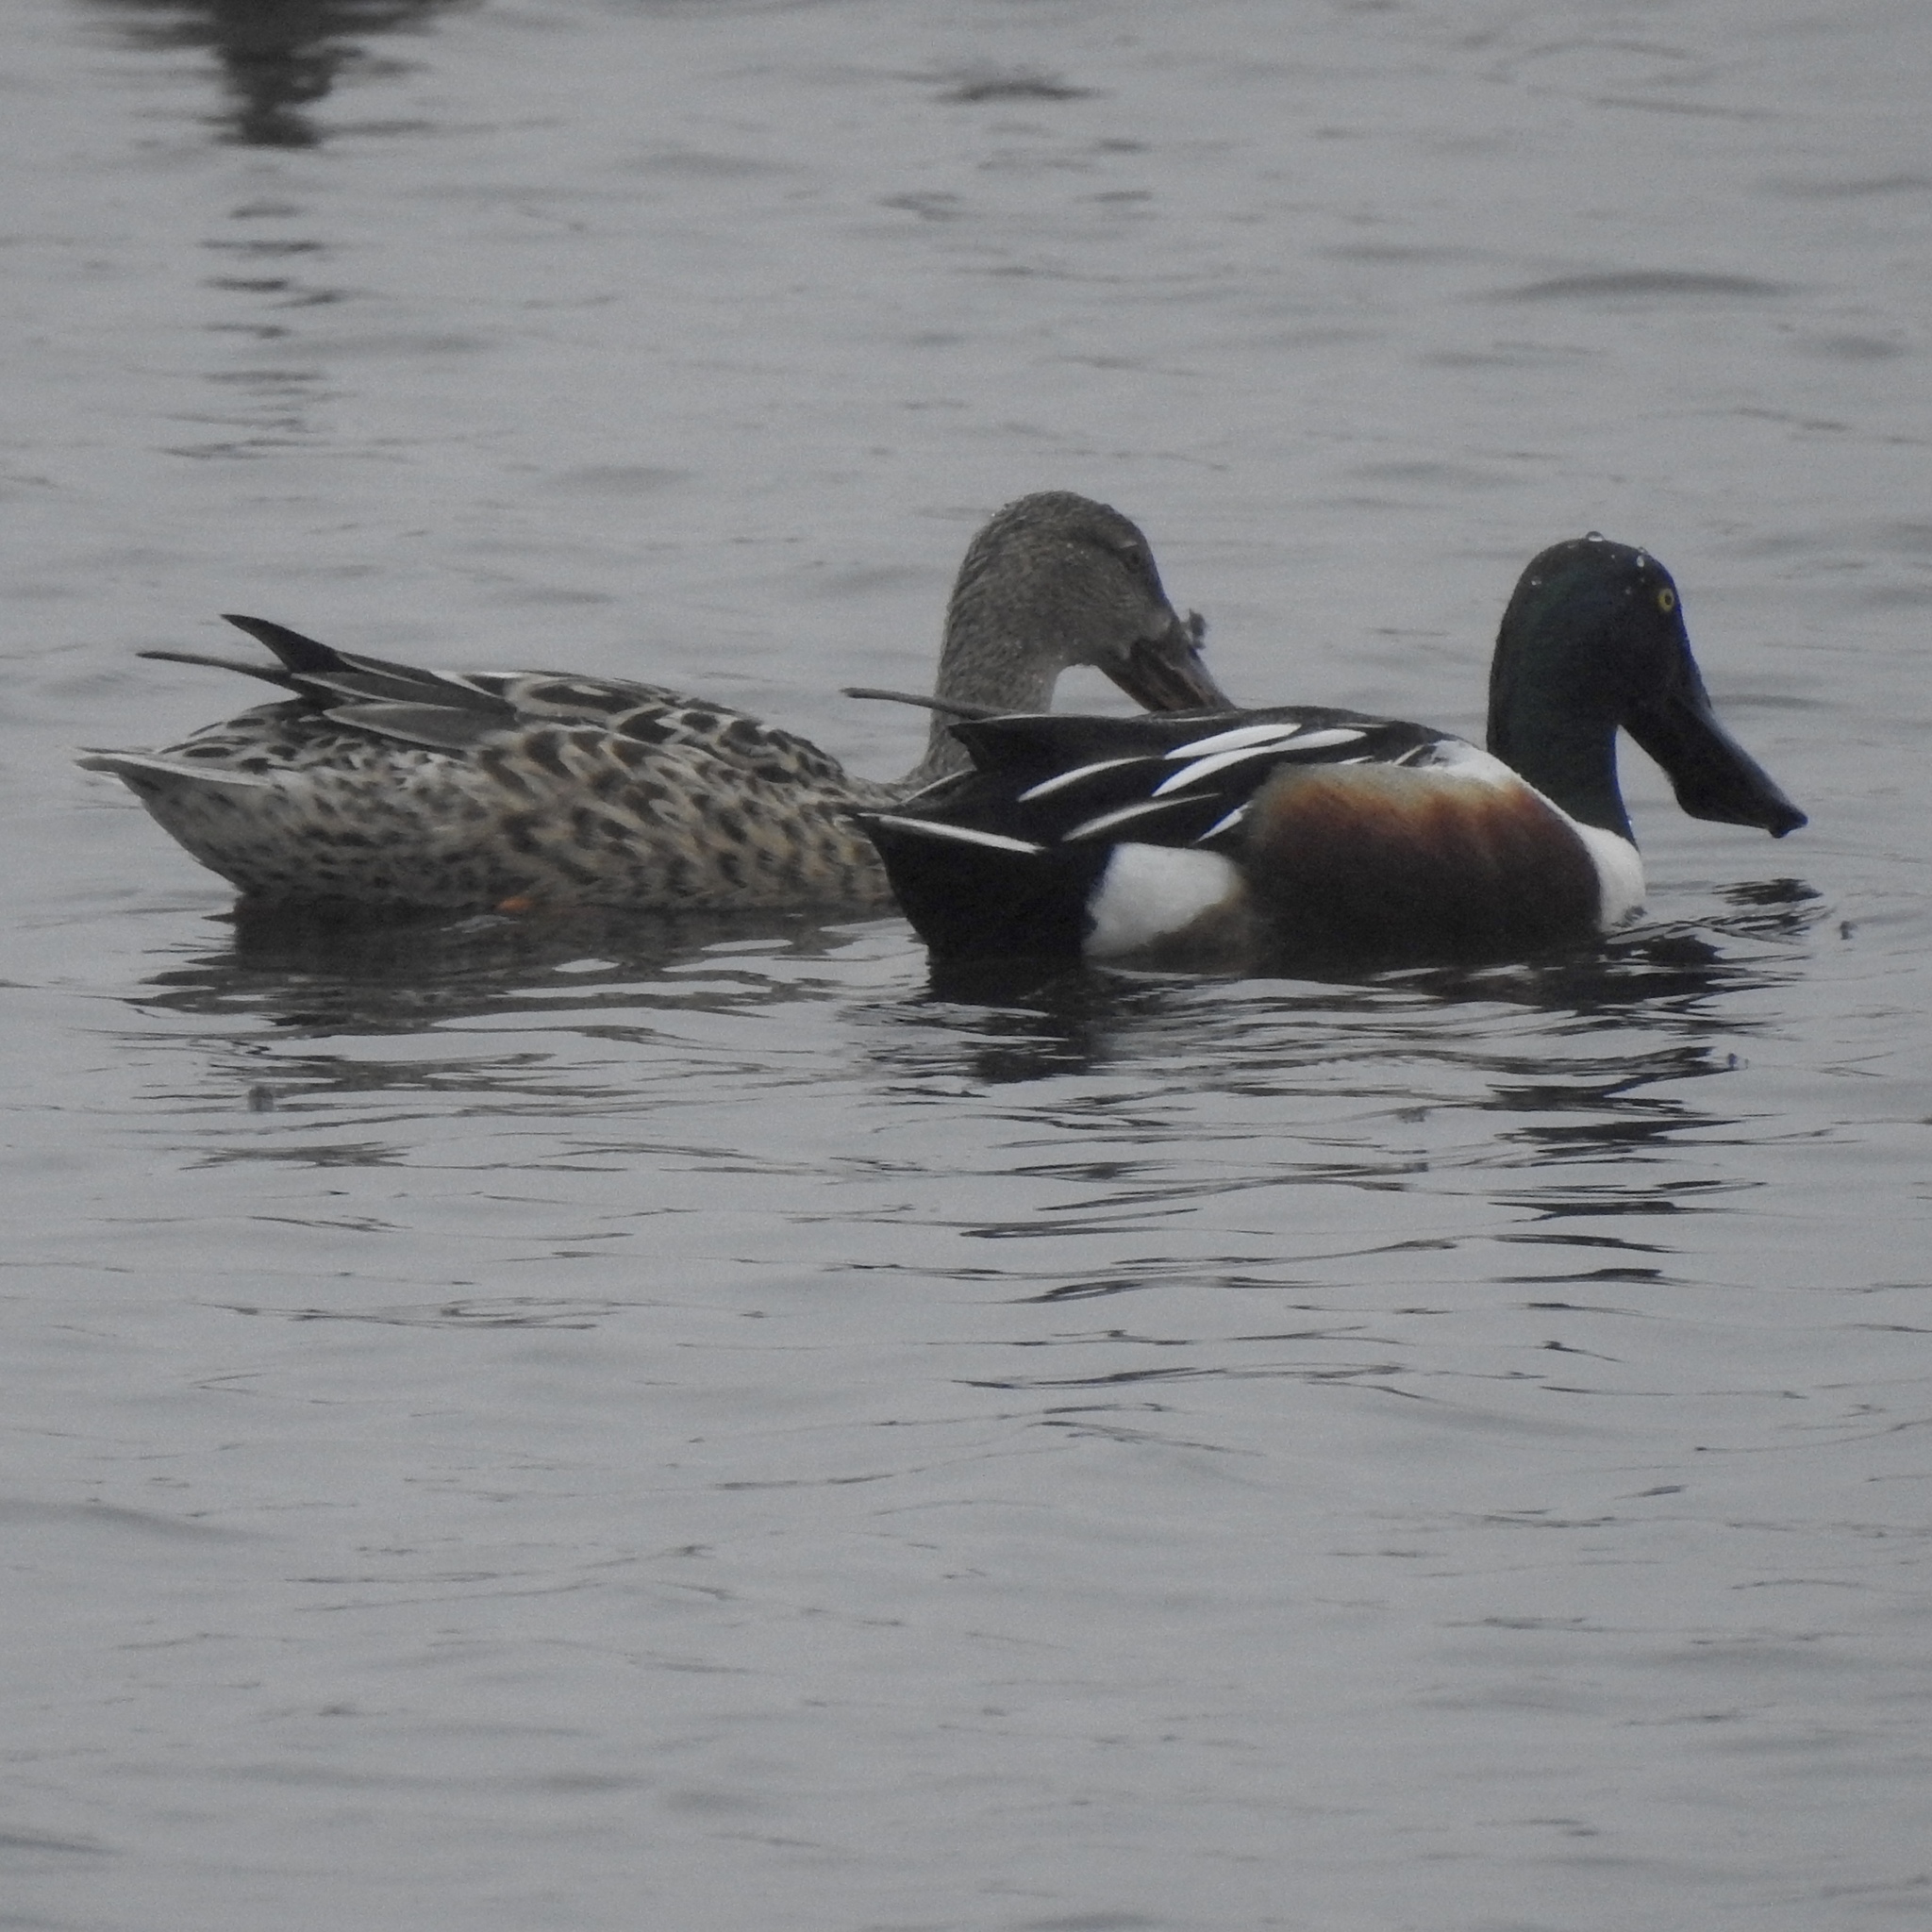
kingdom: Animalia
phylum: Chordata
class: Aves
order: Anseriformes
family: Anatidae
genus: Spatula
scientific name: Spatula clypeata
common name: Northern shoveler
